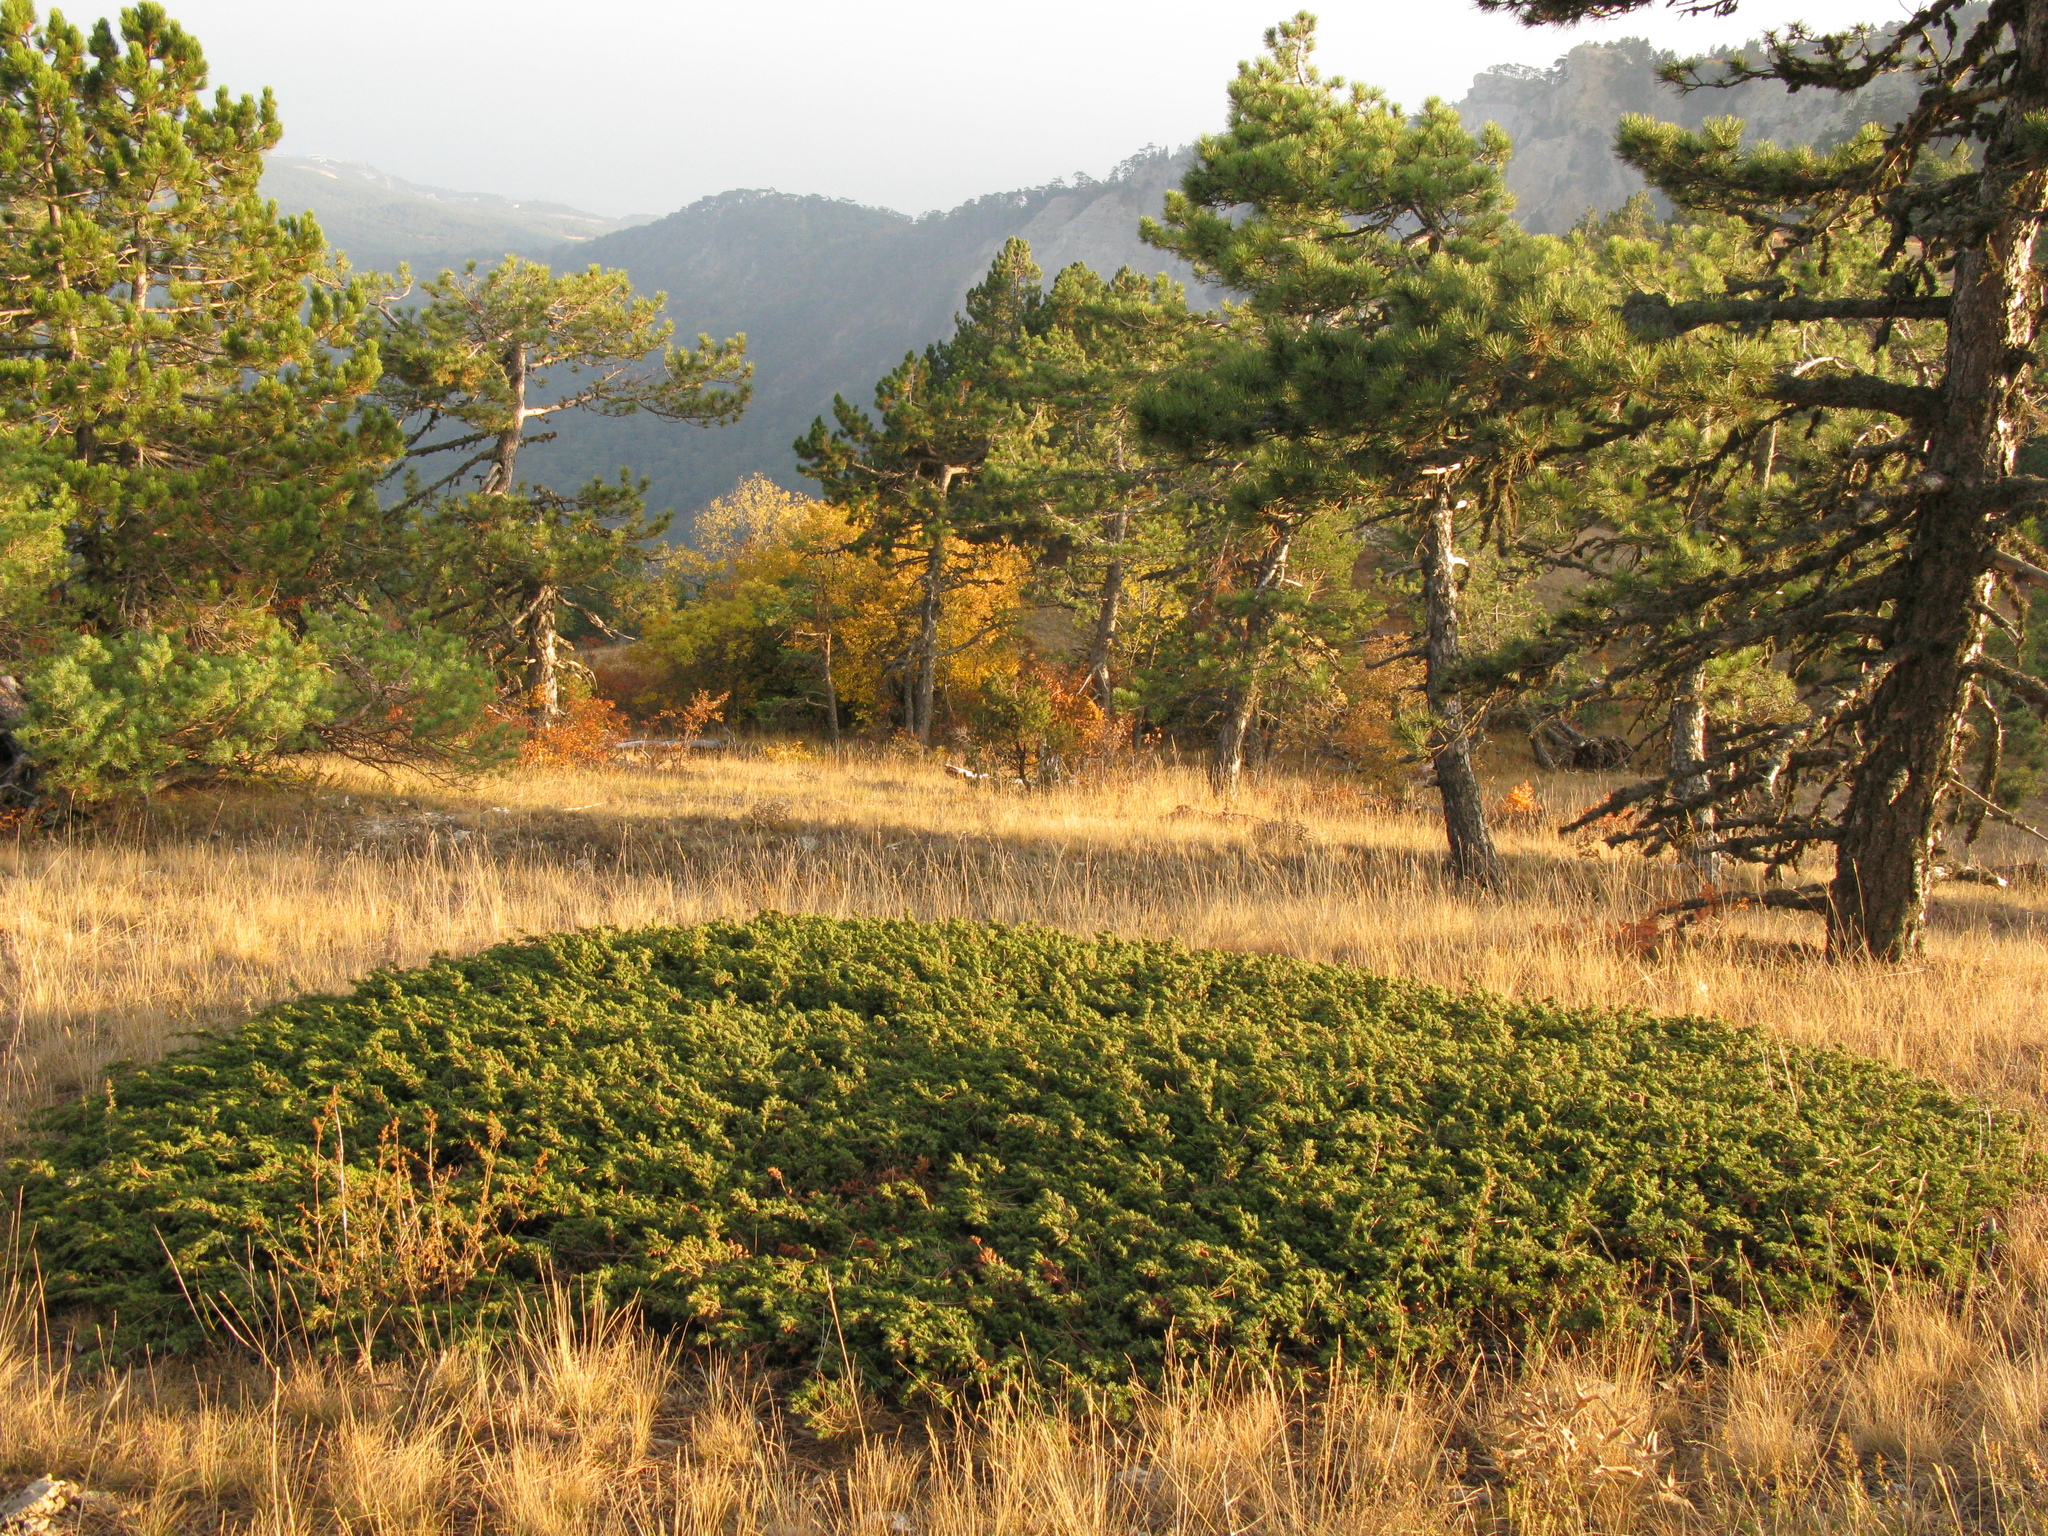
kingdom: Plantae
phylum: Tracheophyta
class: Pinopsida
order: Pinales
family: Cupressaceae
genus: Juniperus
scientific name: Juniperus communis
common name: Common juniper
